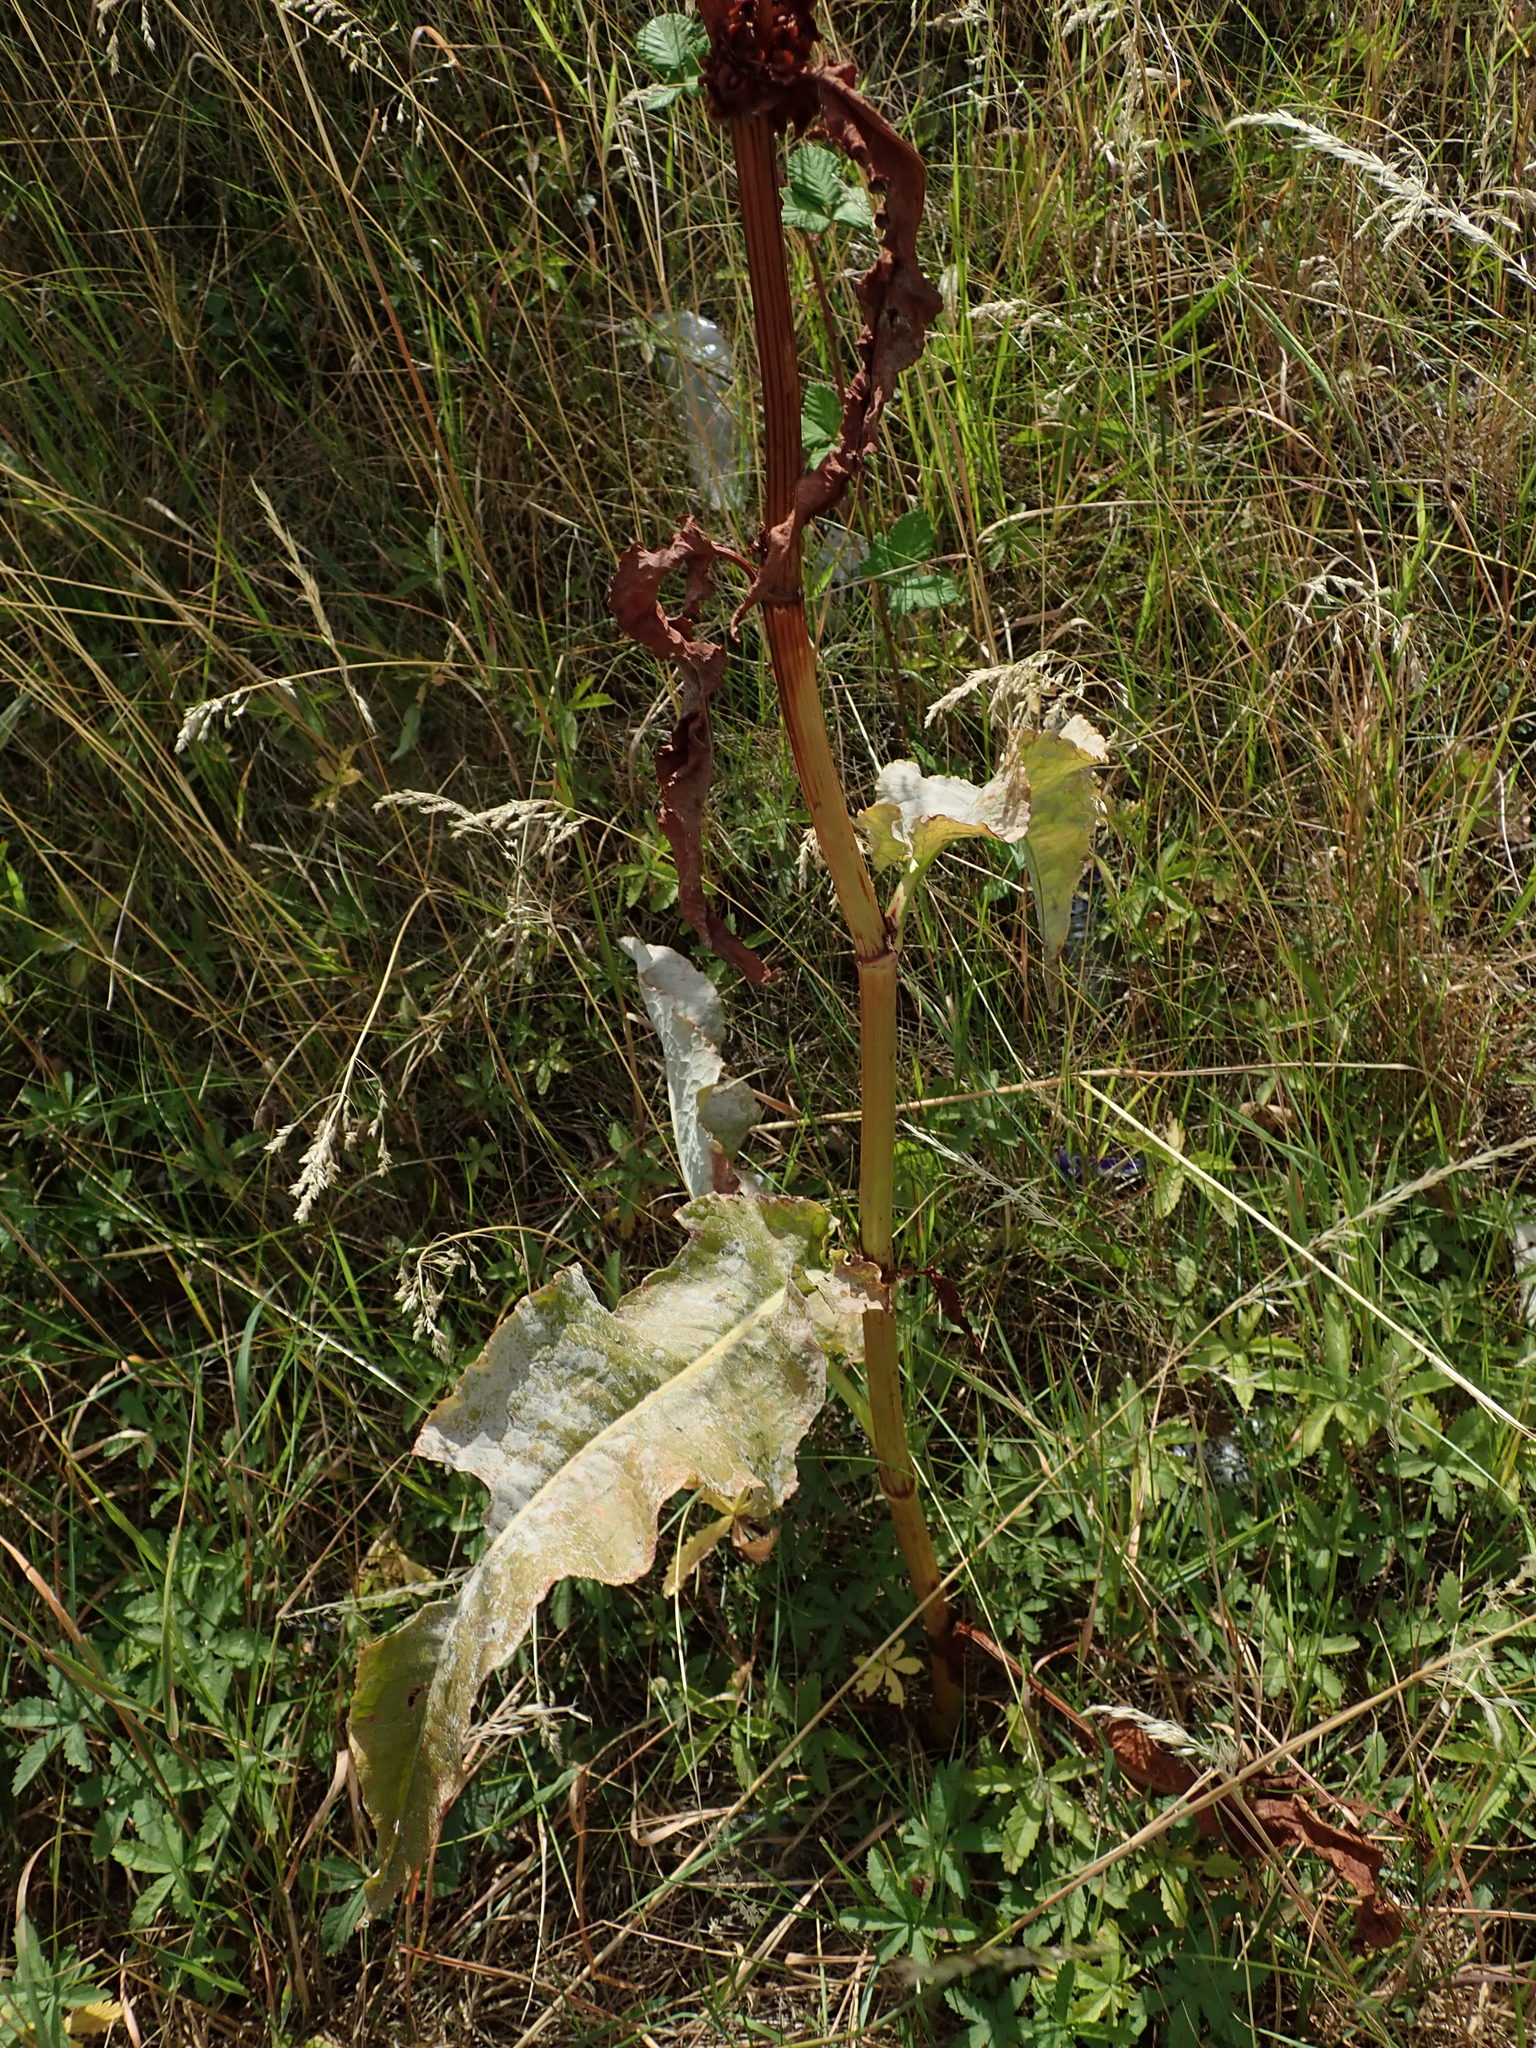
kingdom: Plantae
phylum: Tracheophyta
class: Magnoliopsida
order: Caryophyllales
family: Polygonaceae
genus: Rumex
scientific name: Rumex cristatus
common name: Greek dock
